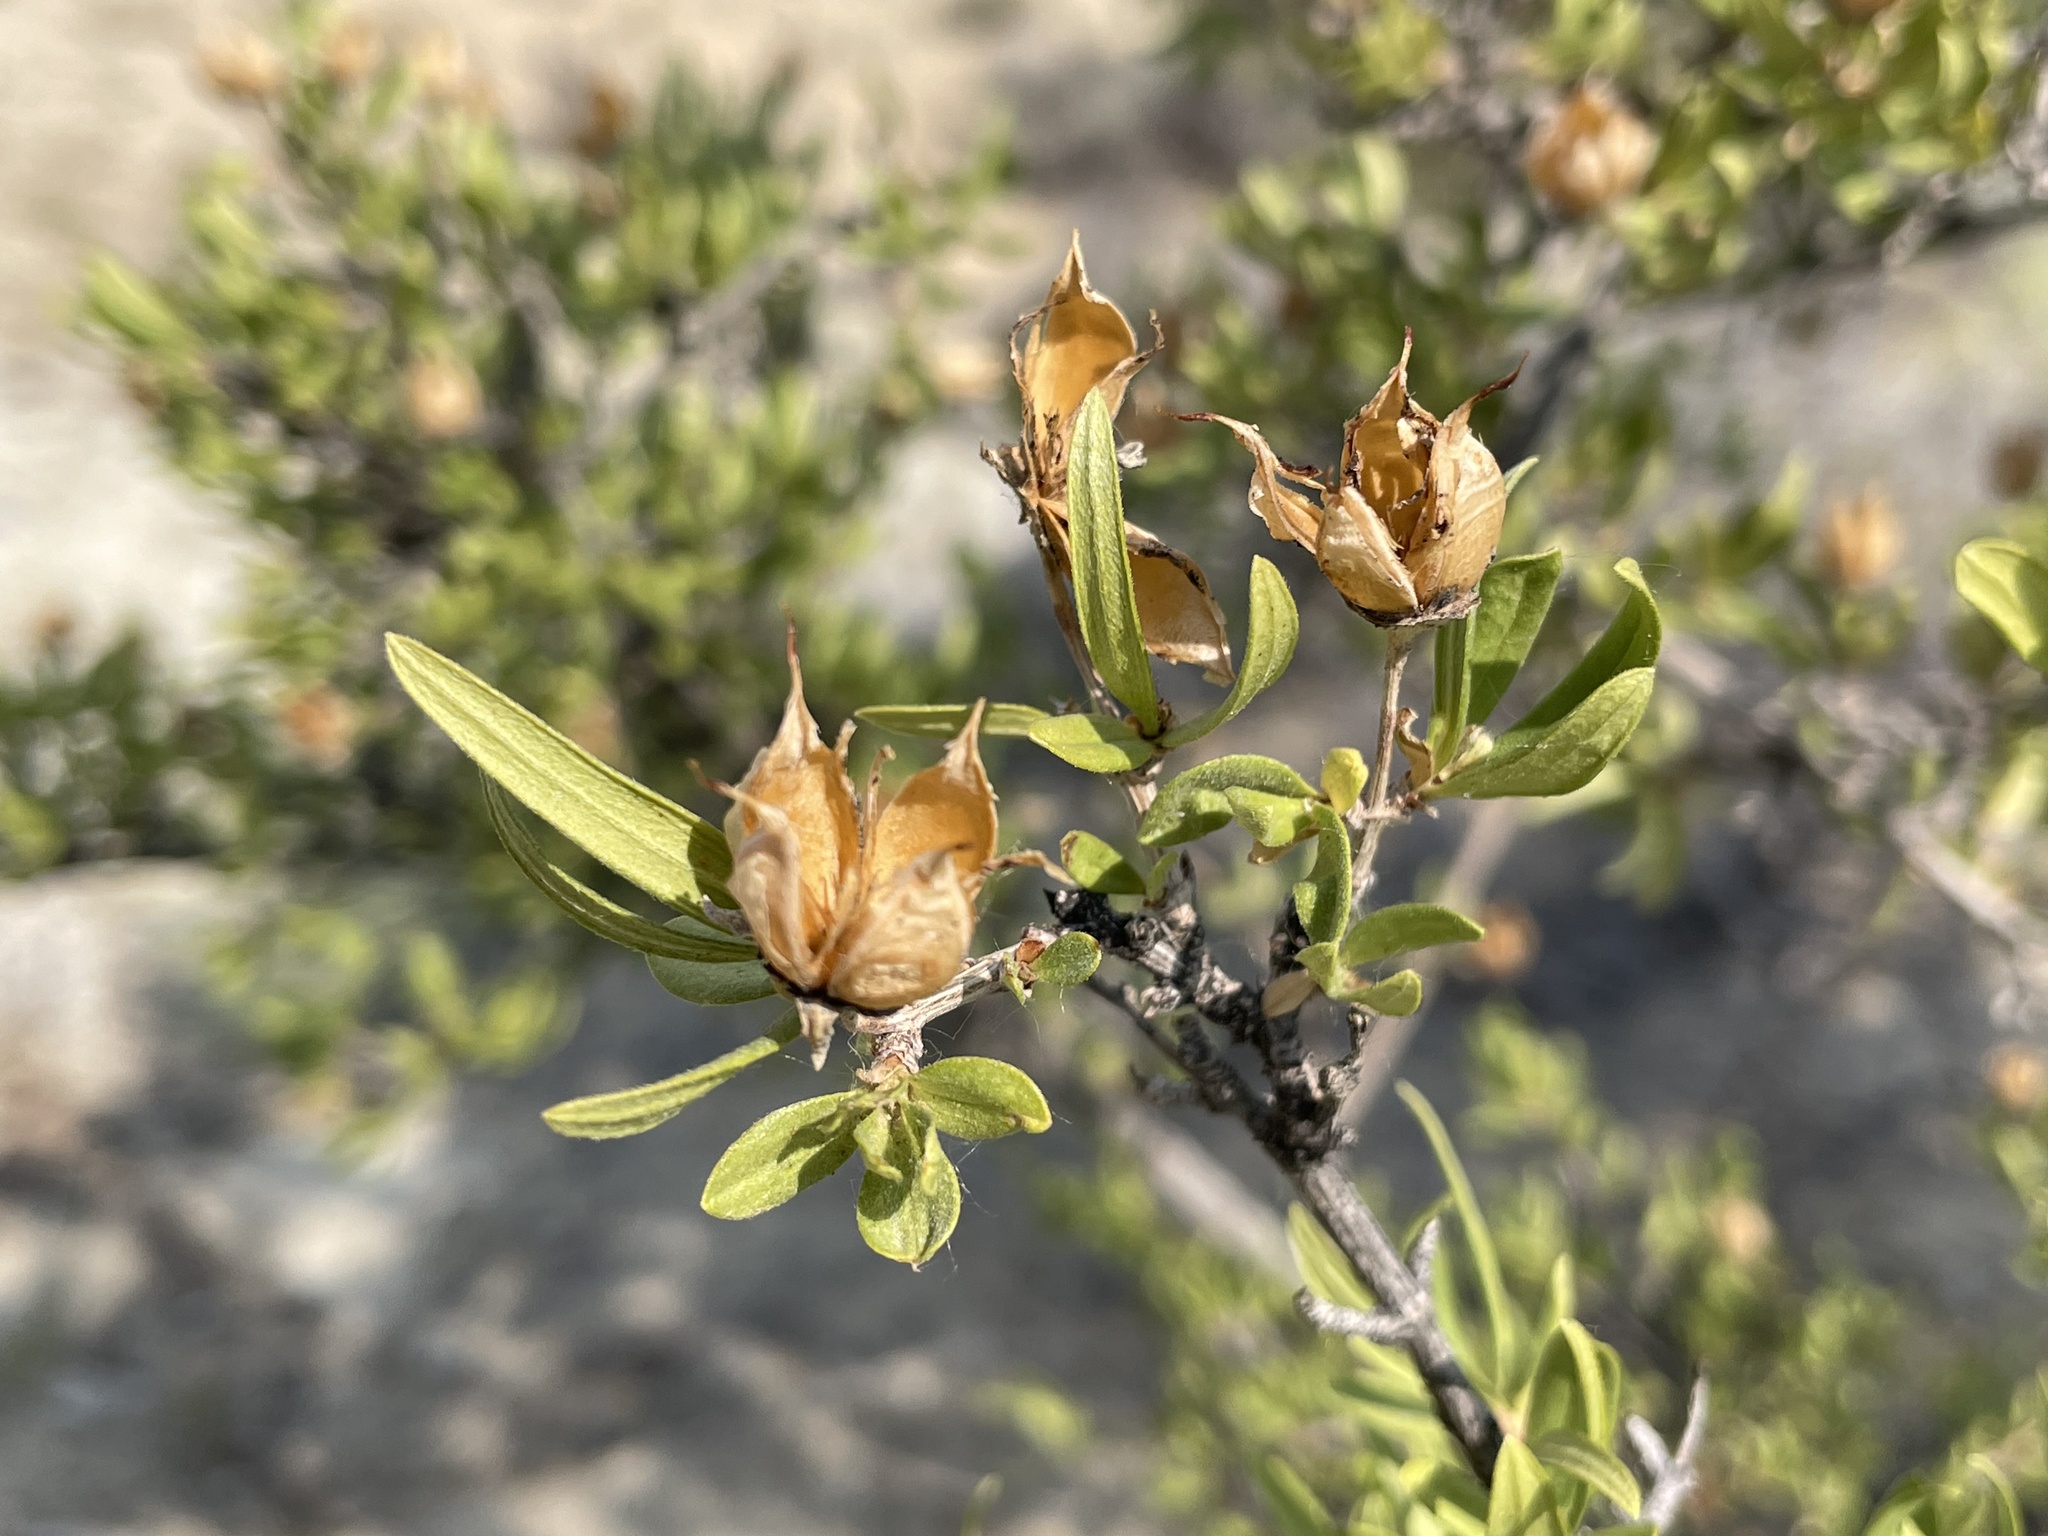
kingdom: Plantae
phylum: Tracheophyta
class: Magnoliopsida
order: Cornales
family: Hydrangeaceae
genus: Fendlera
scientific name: Fendlera rupicola
